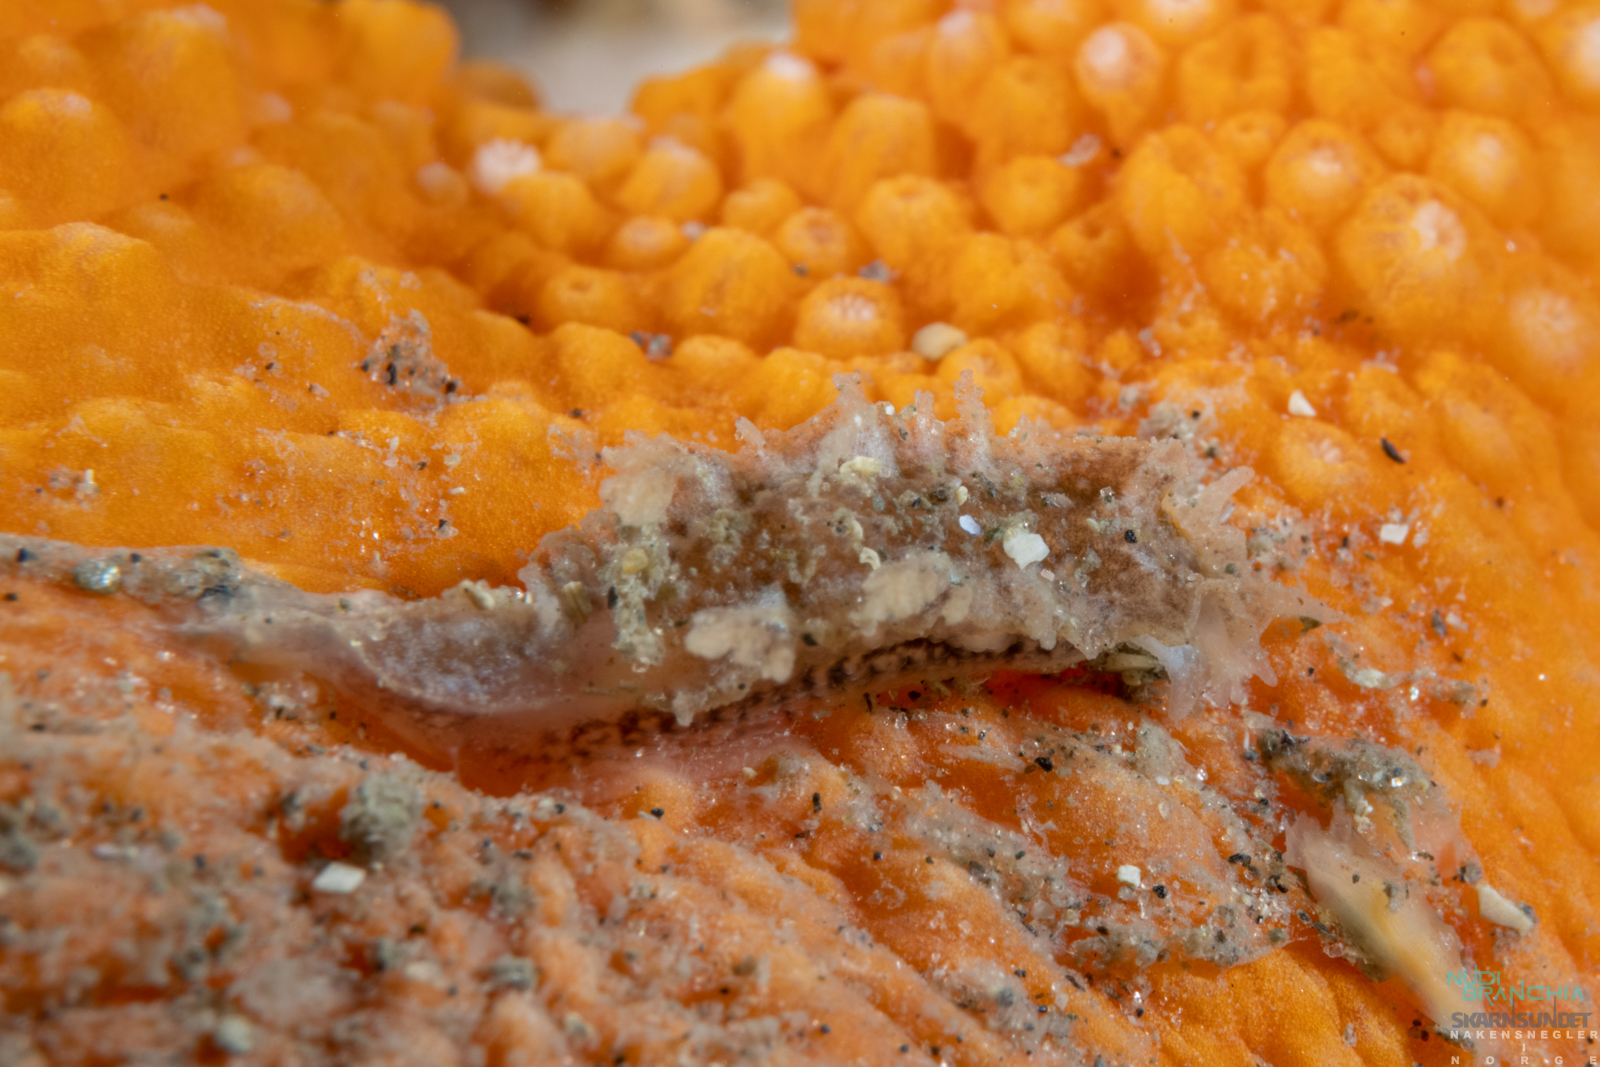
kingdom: Animalia
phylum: Mollusca
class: Gastropoda
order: Nudibranchia
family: Tritoniidae
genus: Duvaucelia
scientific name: Duvaucelia plebeia
